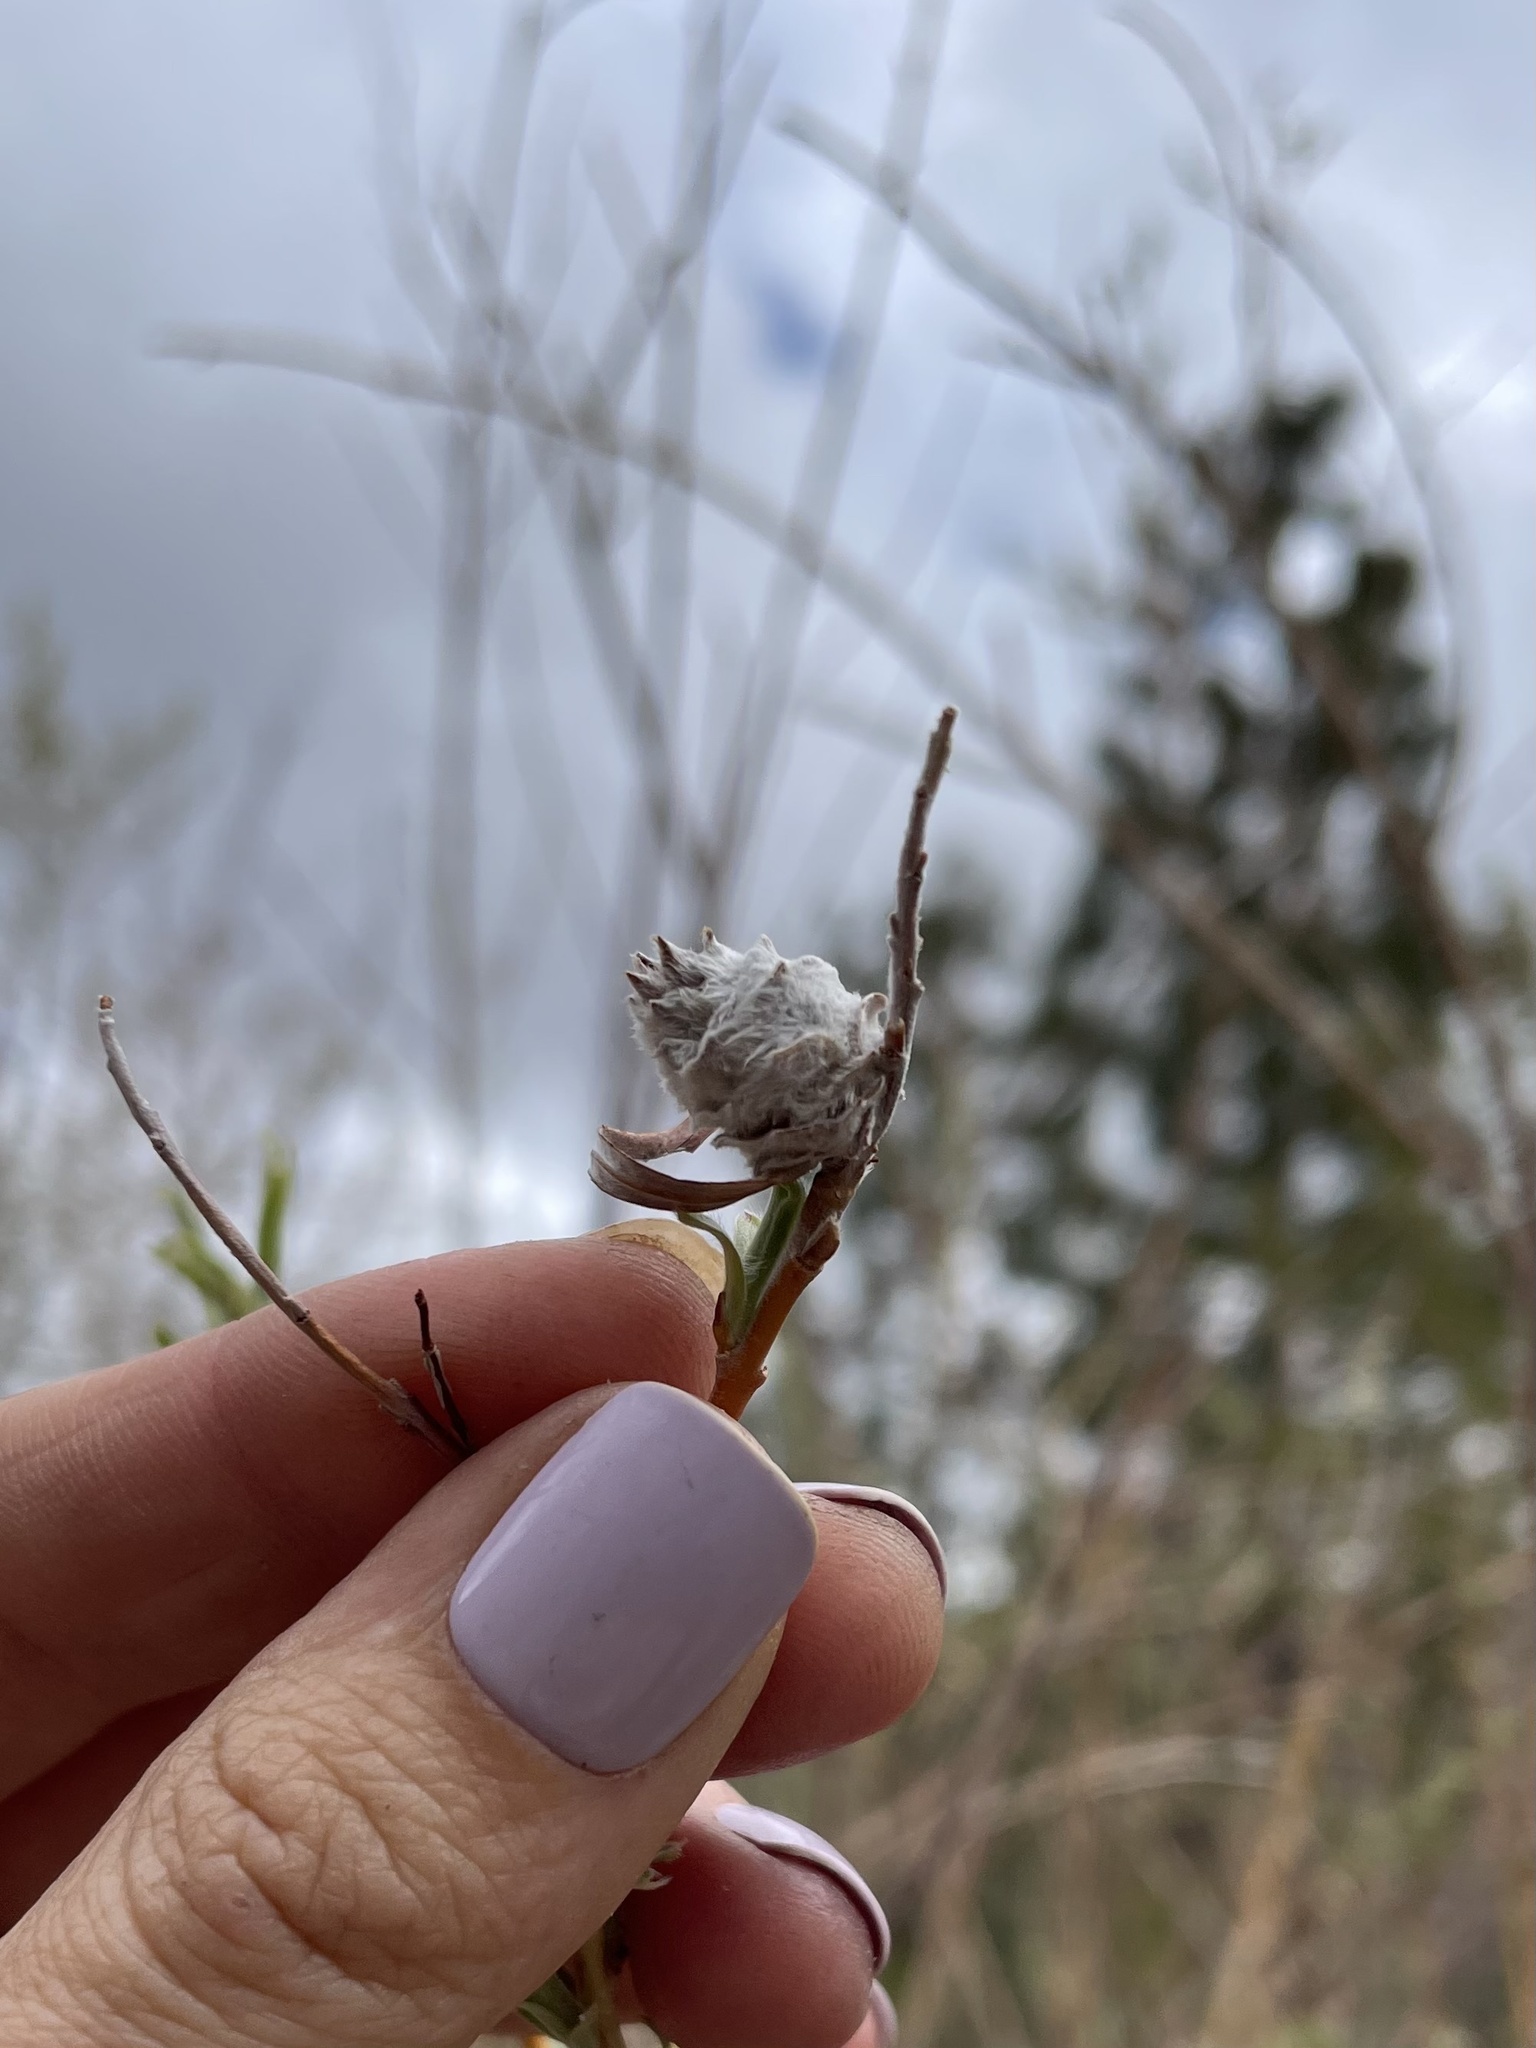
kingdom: Animalia
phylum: Arthropoda
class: Insecta
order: Diptera
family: Cecidomyiidae
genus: Rabdophaga
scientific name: Rabdophaga strobiloides
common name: Willow pinecone gall midge
